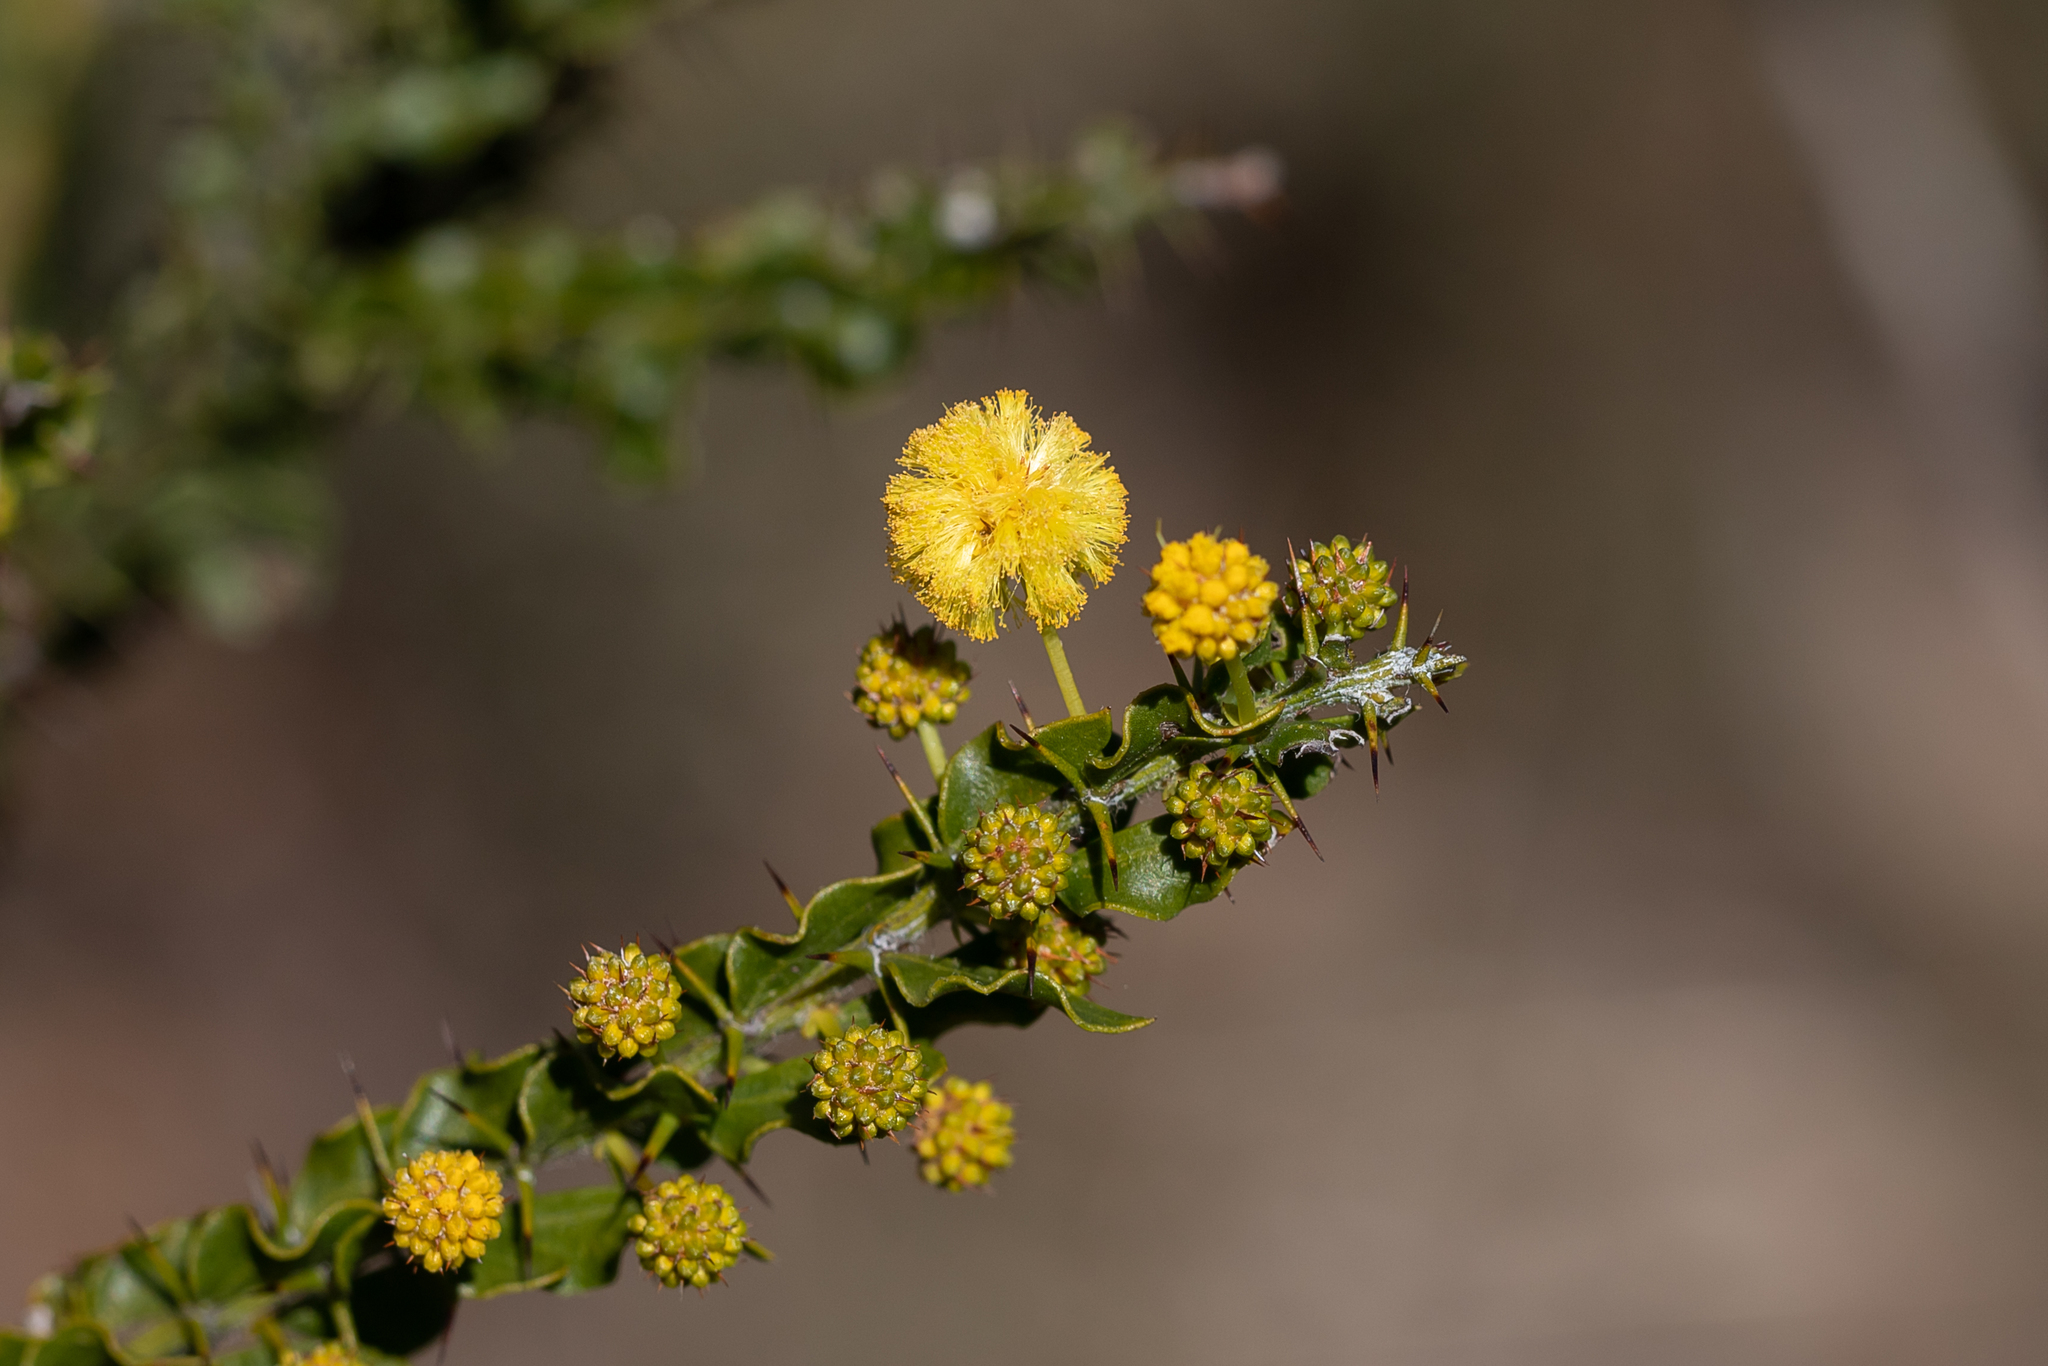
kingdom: Plantae
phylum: Tracheophyta
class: Magnoliopsida
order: Fabales
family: Fabaceae
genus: Acacia
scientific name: Acacia paradoxa
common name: Paradox acacia
